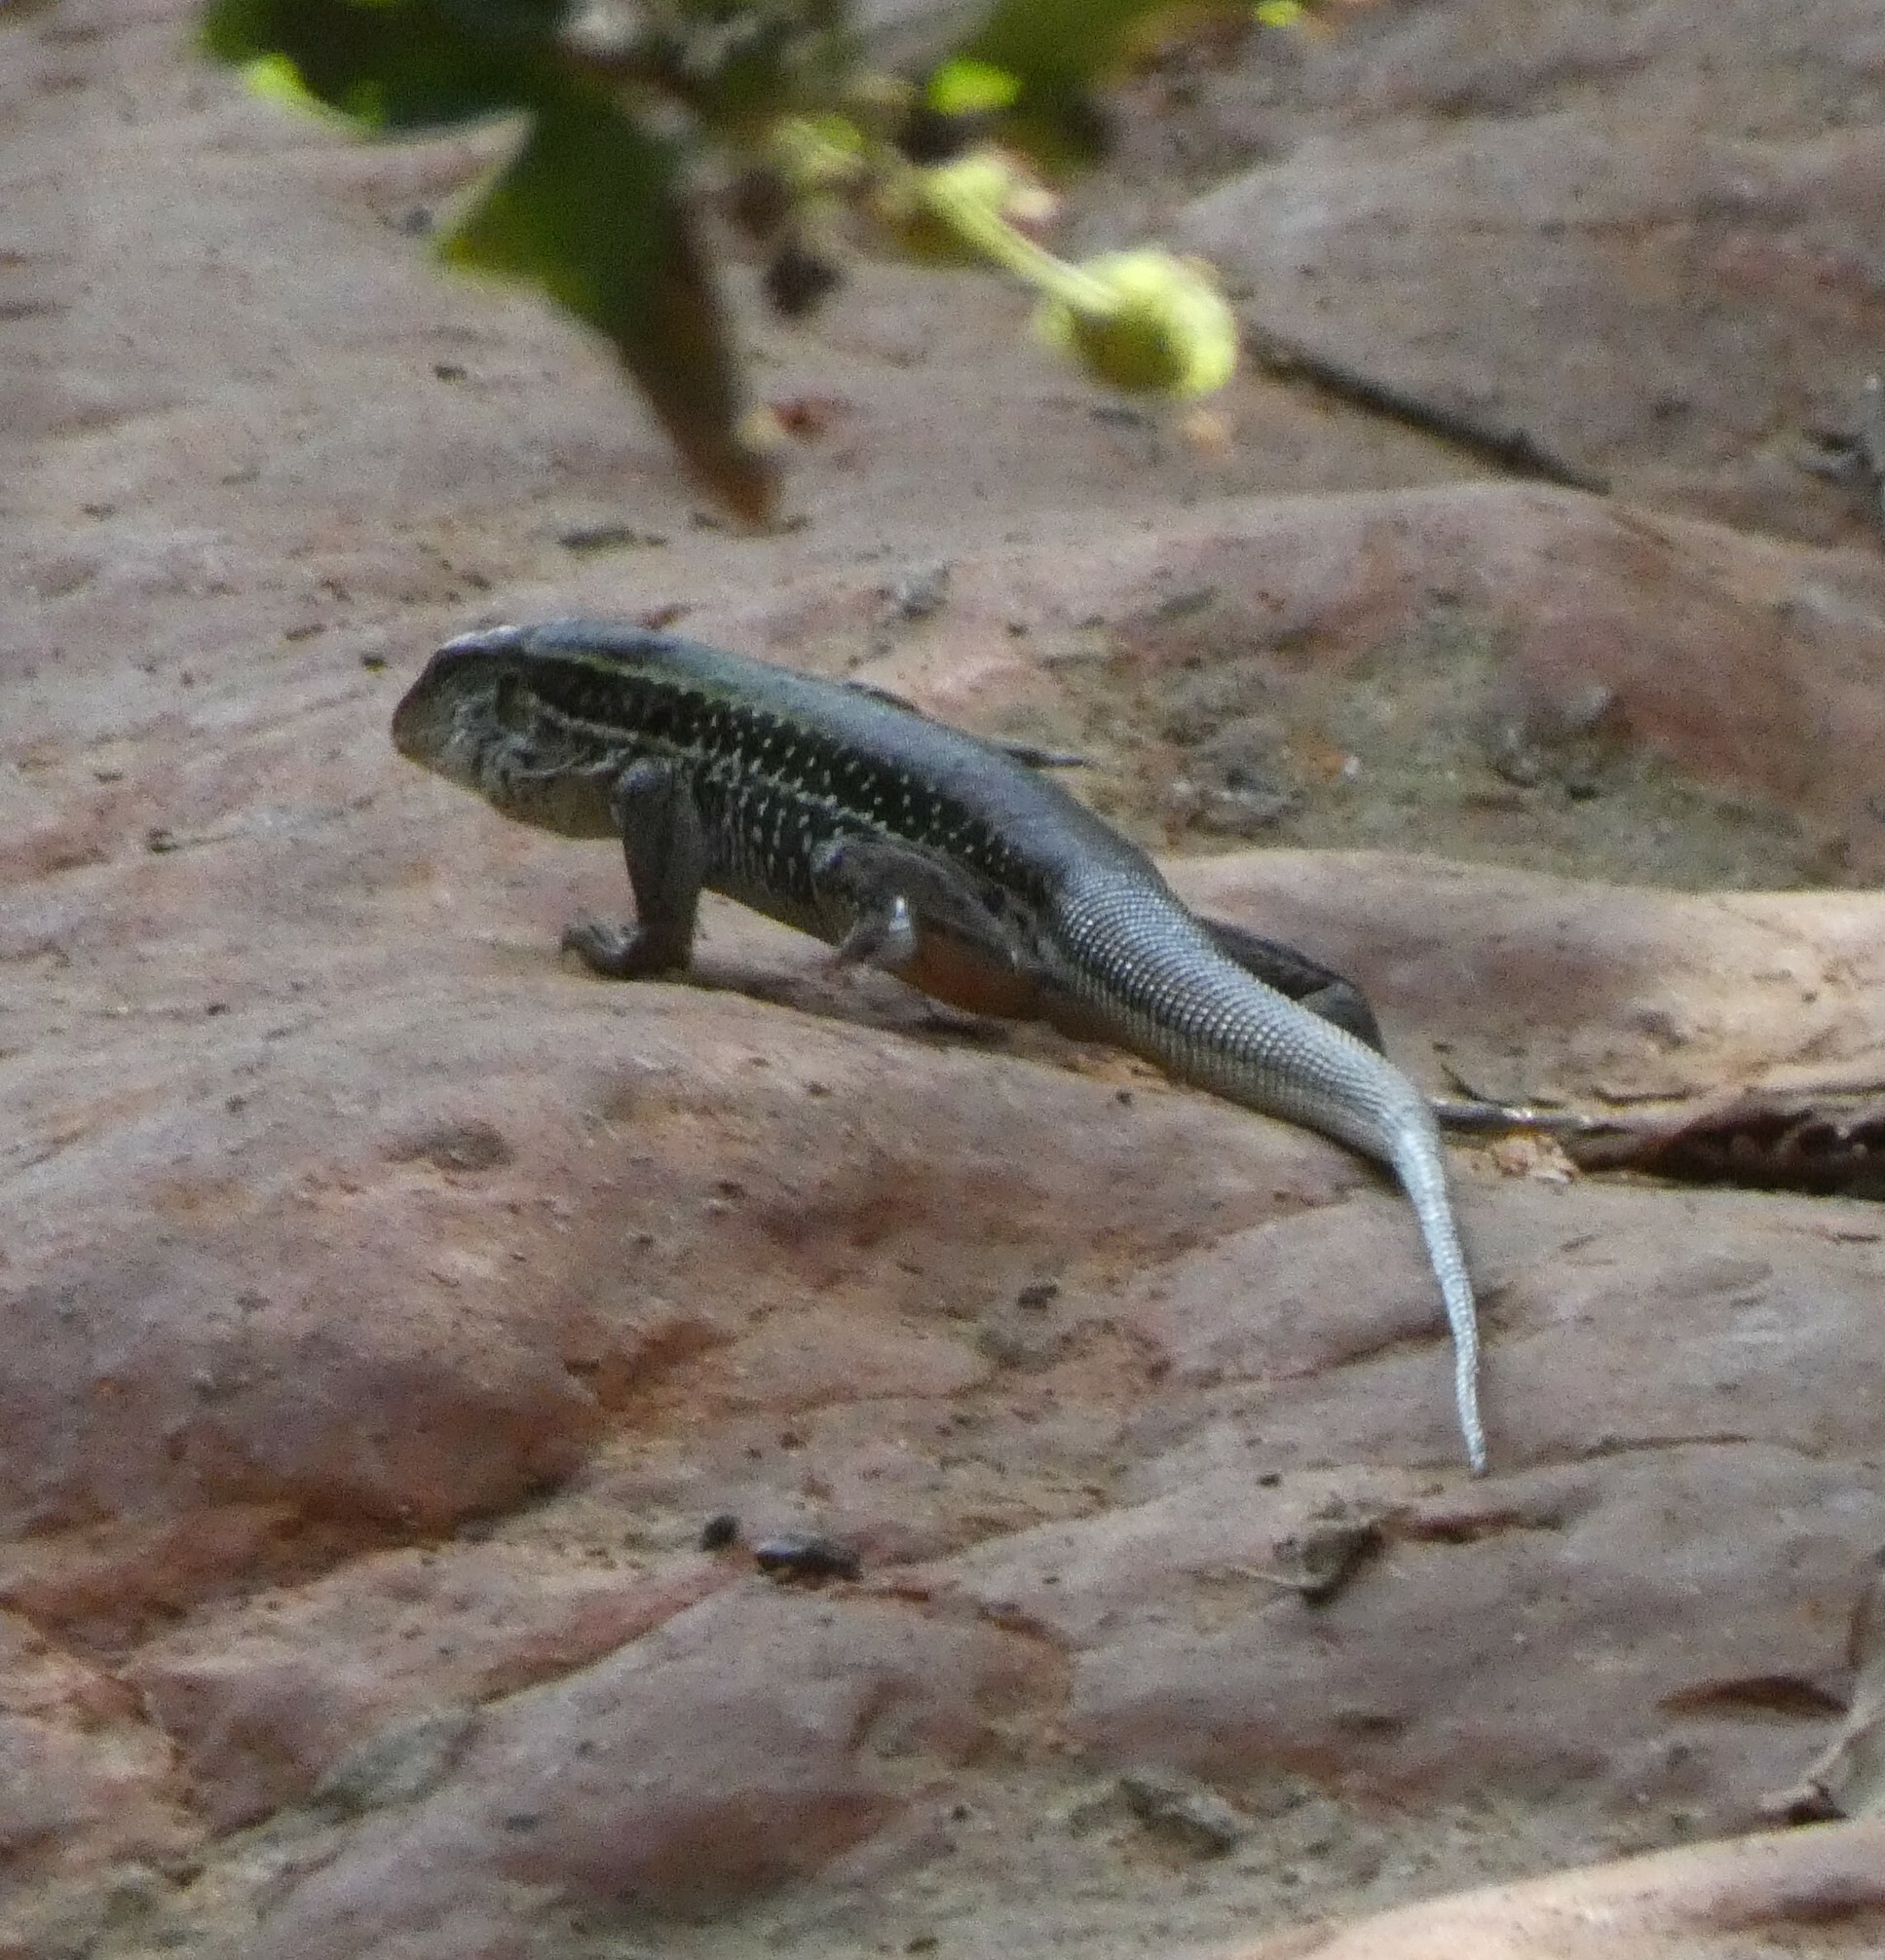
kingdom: Animalia
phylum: Chordata
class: Squamata
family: Teiidae
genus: Ameiva
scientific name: Ameiva ameiva
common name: Giant ameiva
